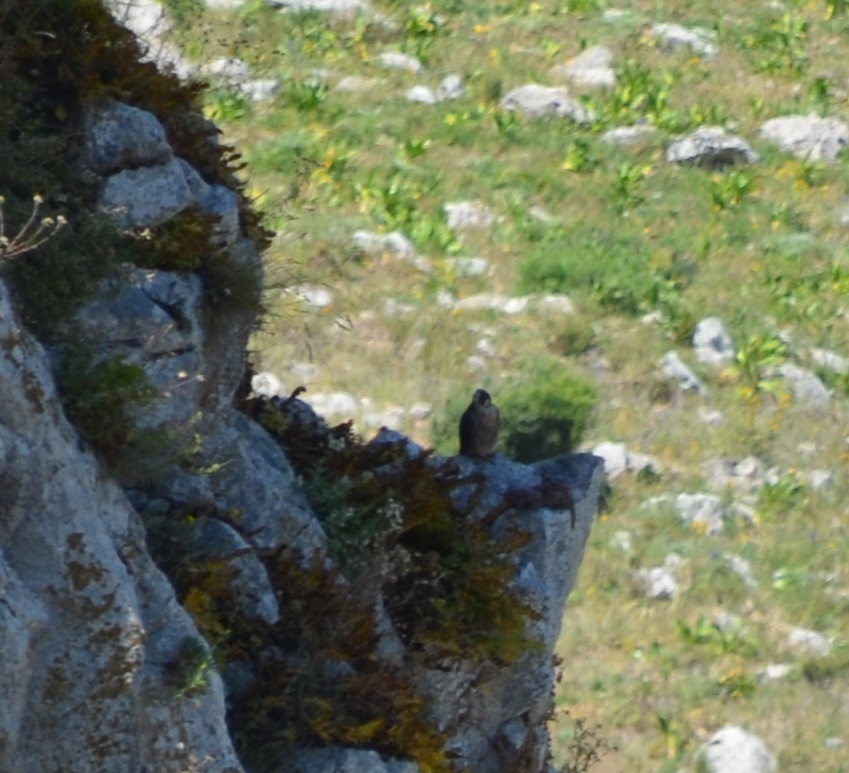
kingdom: Animalia
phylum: Chordata
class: Aves
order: Falconiformes
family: Falconidae
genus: Falco
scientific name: Falco peregrinus
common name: Peregrine falcon
